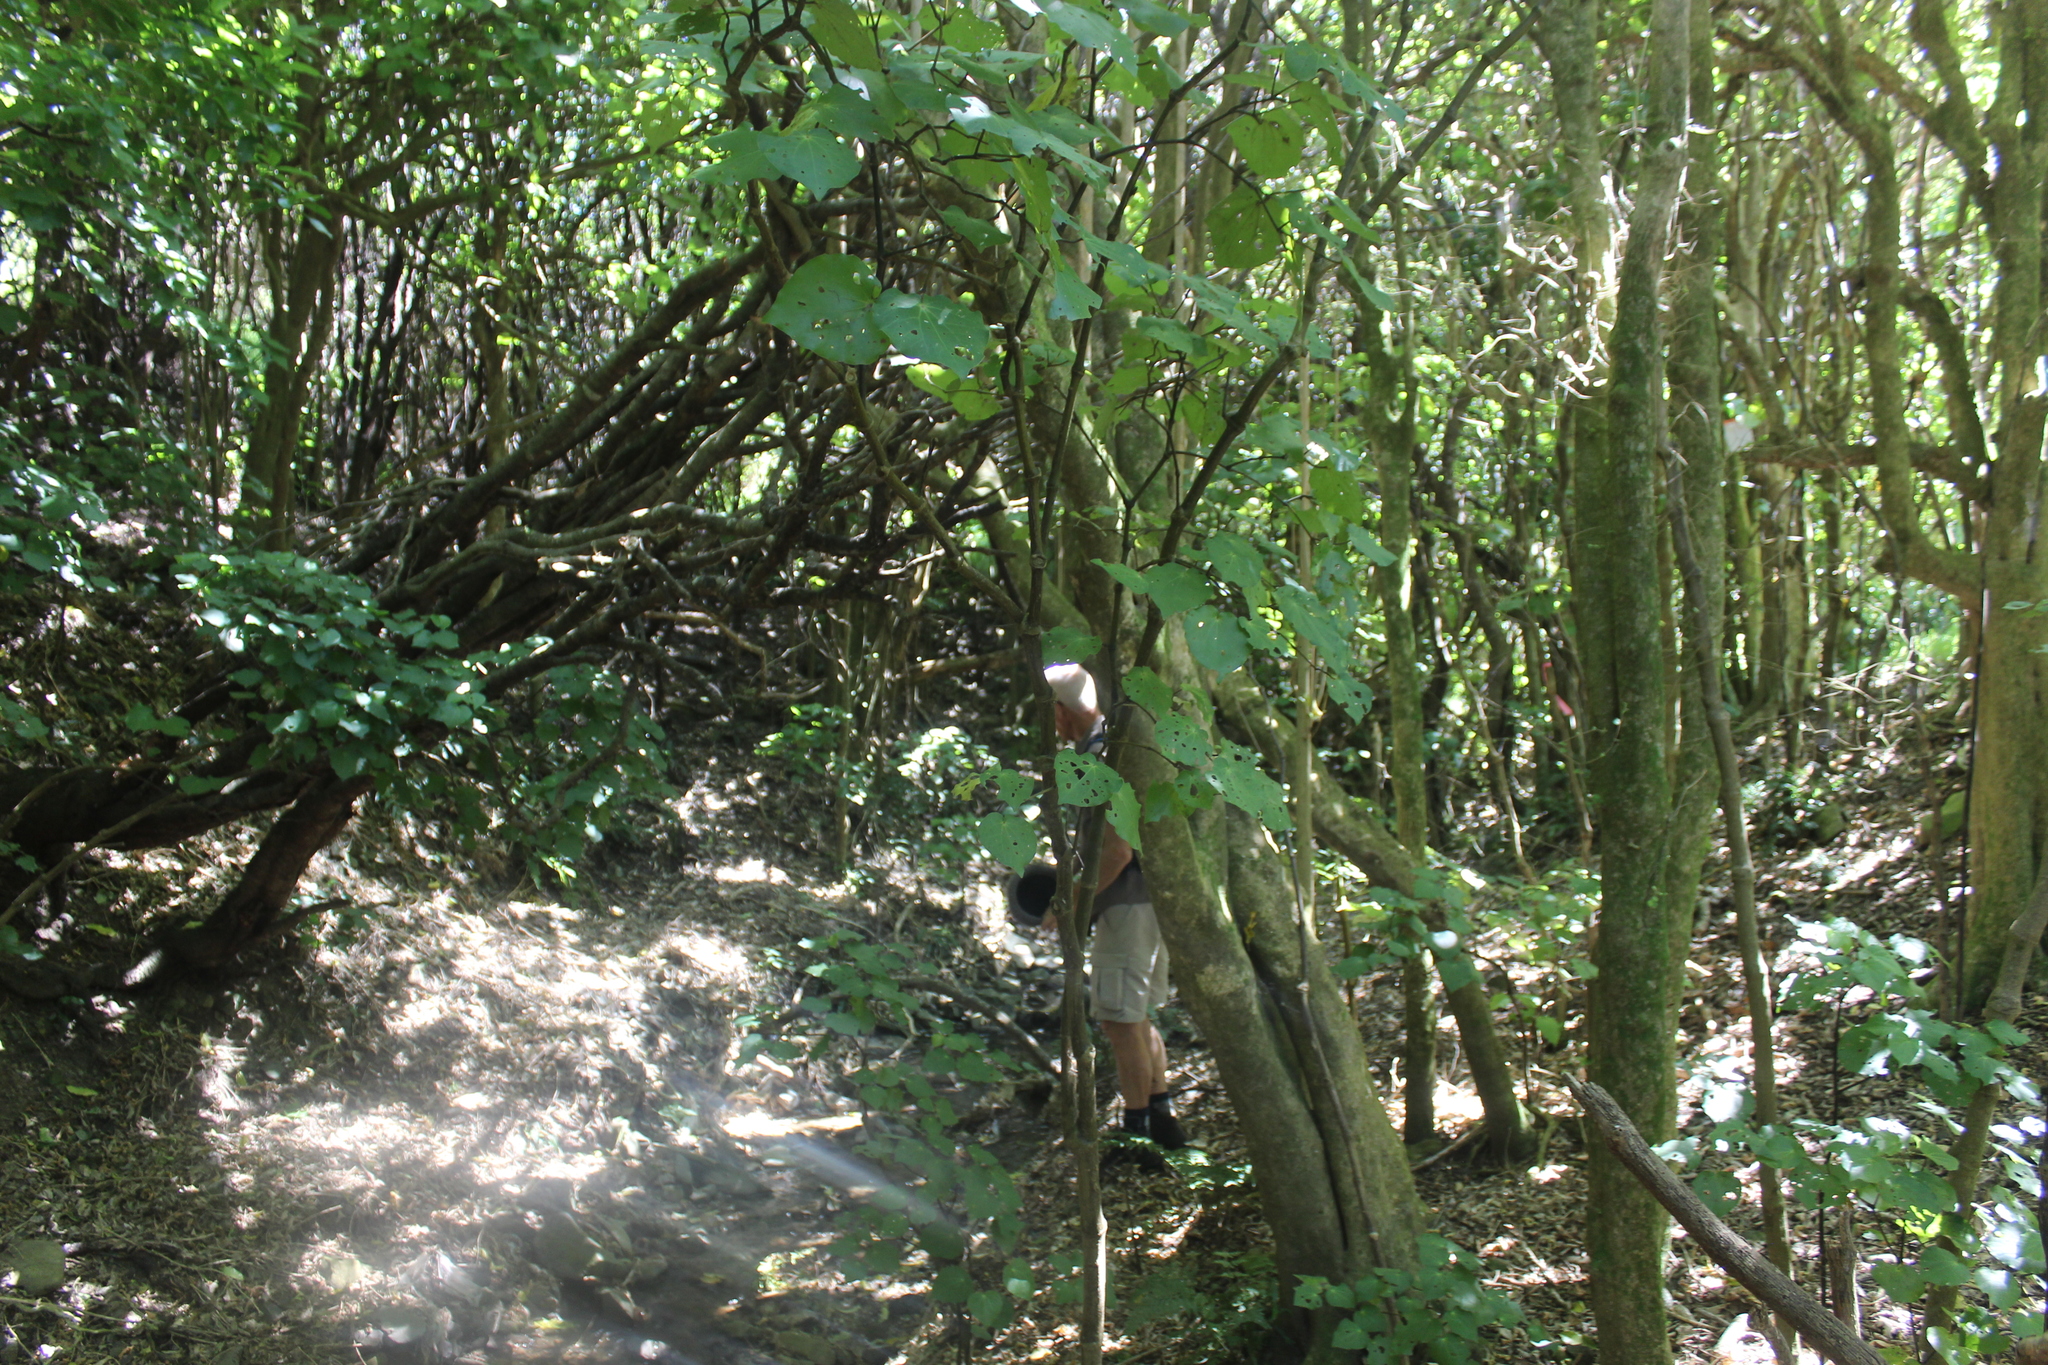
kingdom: Plantae
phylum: Tracheophyta
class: Magnoliopsida
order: Piperales
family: Piperaceae
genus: Macropiper
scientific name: Macropiper excelsum
